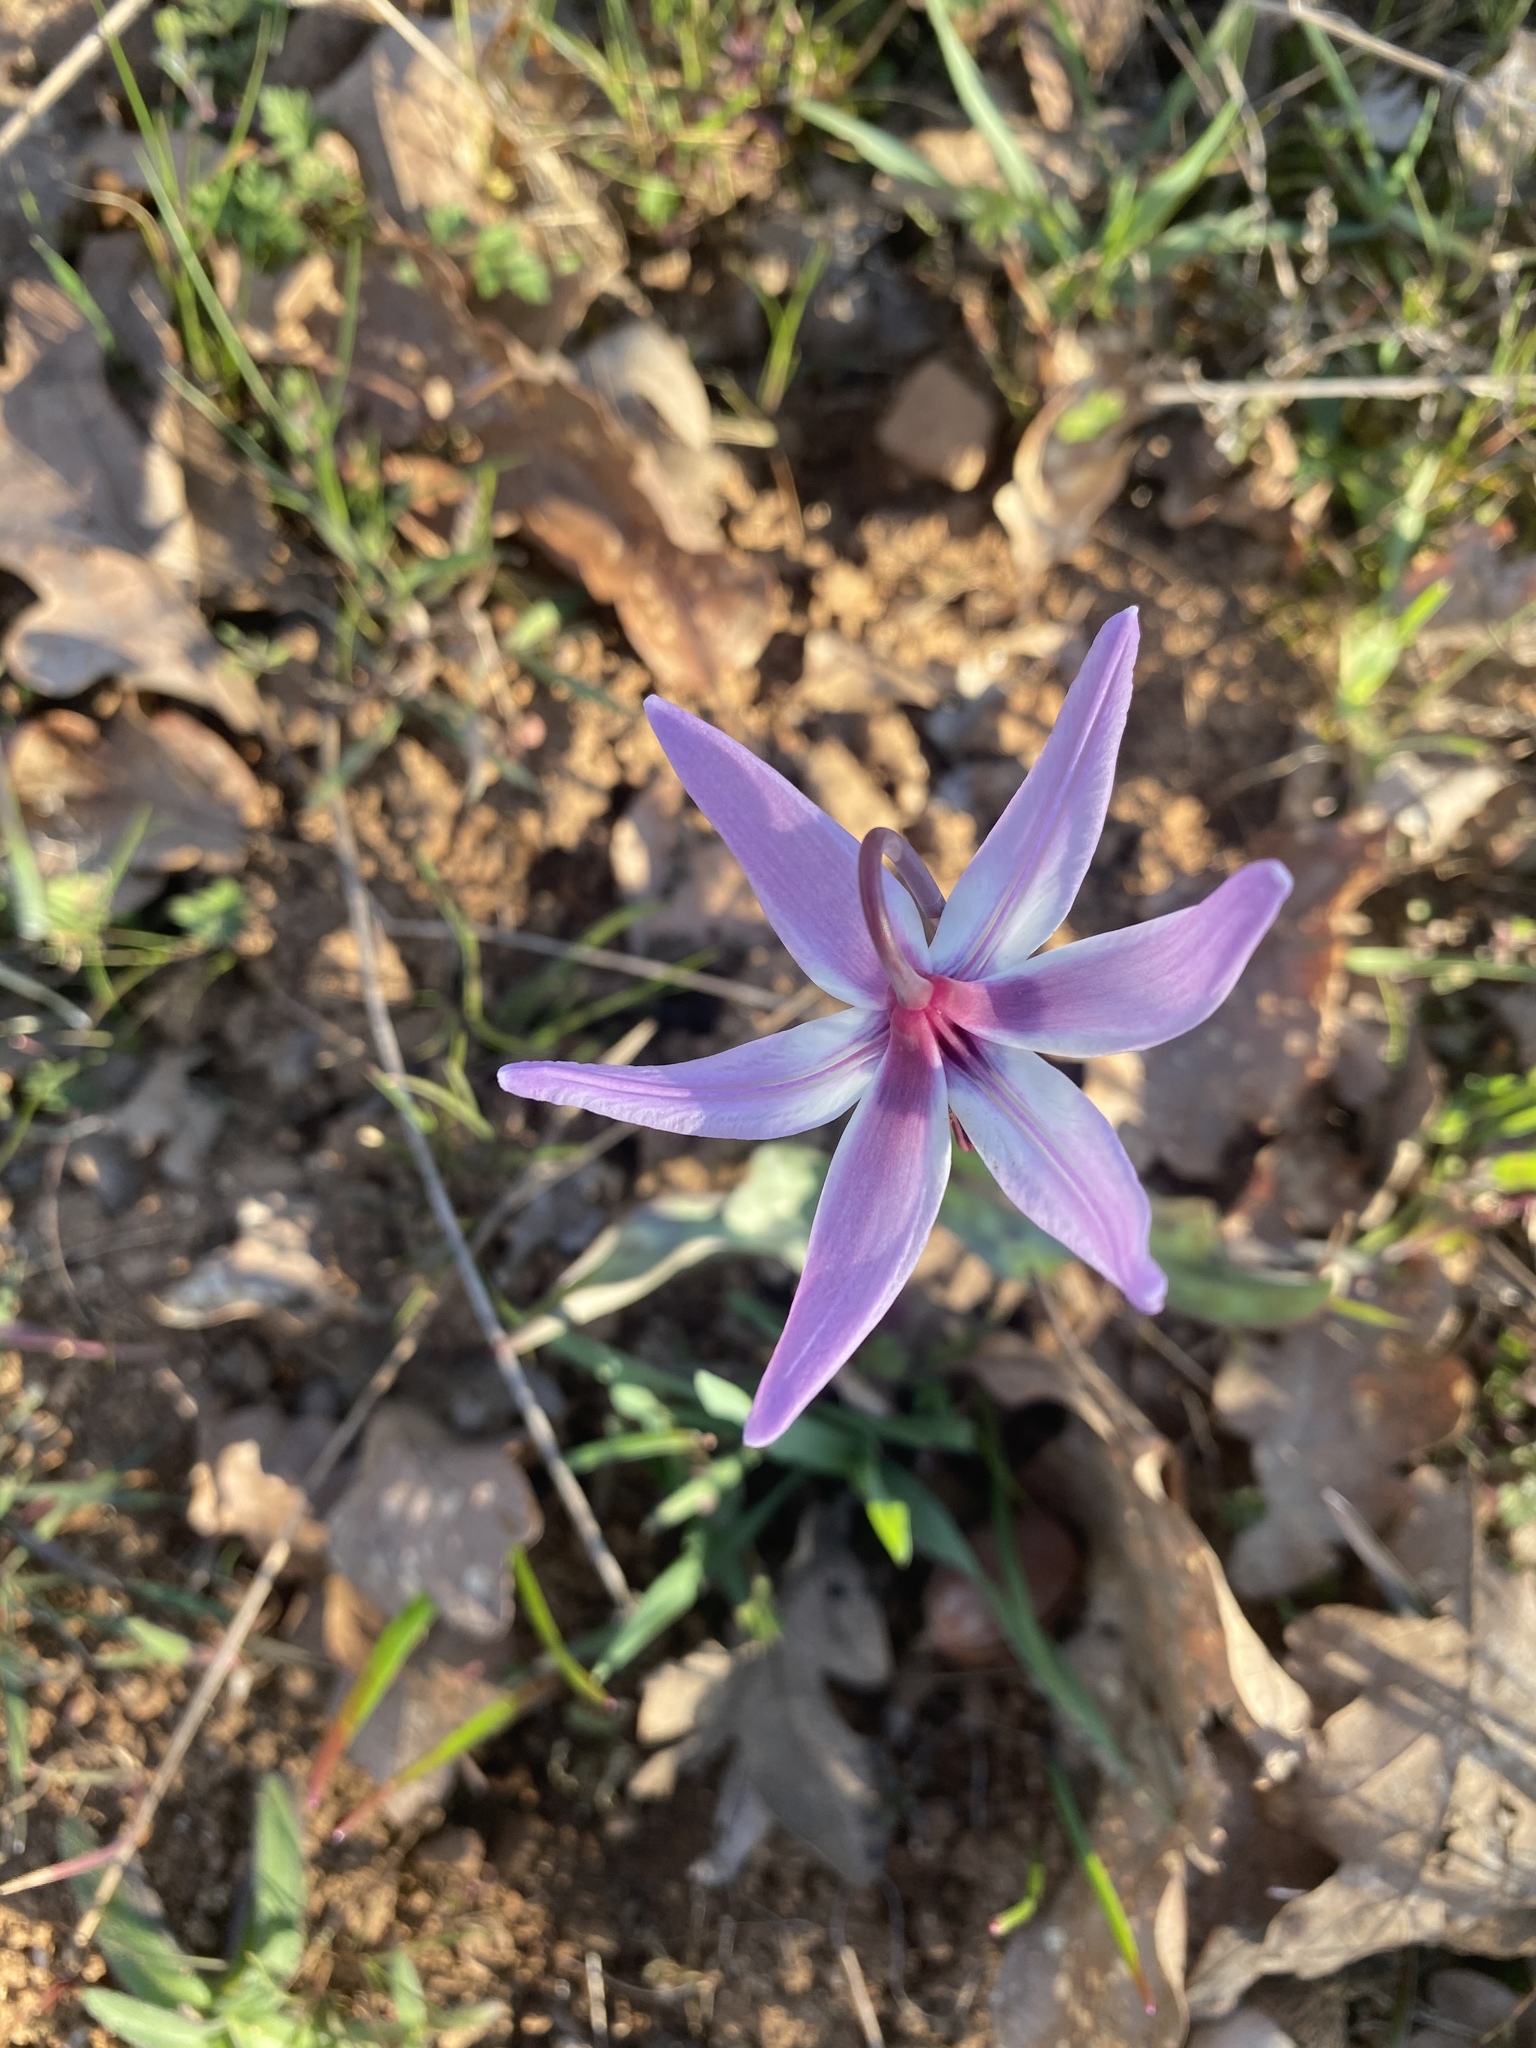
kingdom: Plantae
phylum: Tracheophyta
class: Liliopsida
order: Liliales
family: Liliaceae
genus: Erythronium
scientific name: Erythronium hendersonii
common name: Henderson's fawn-lily
